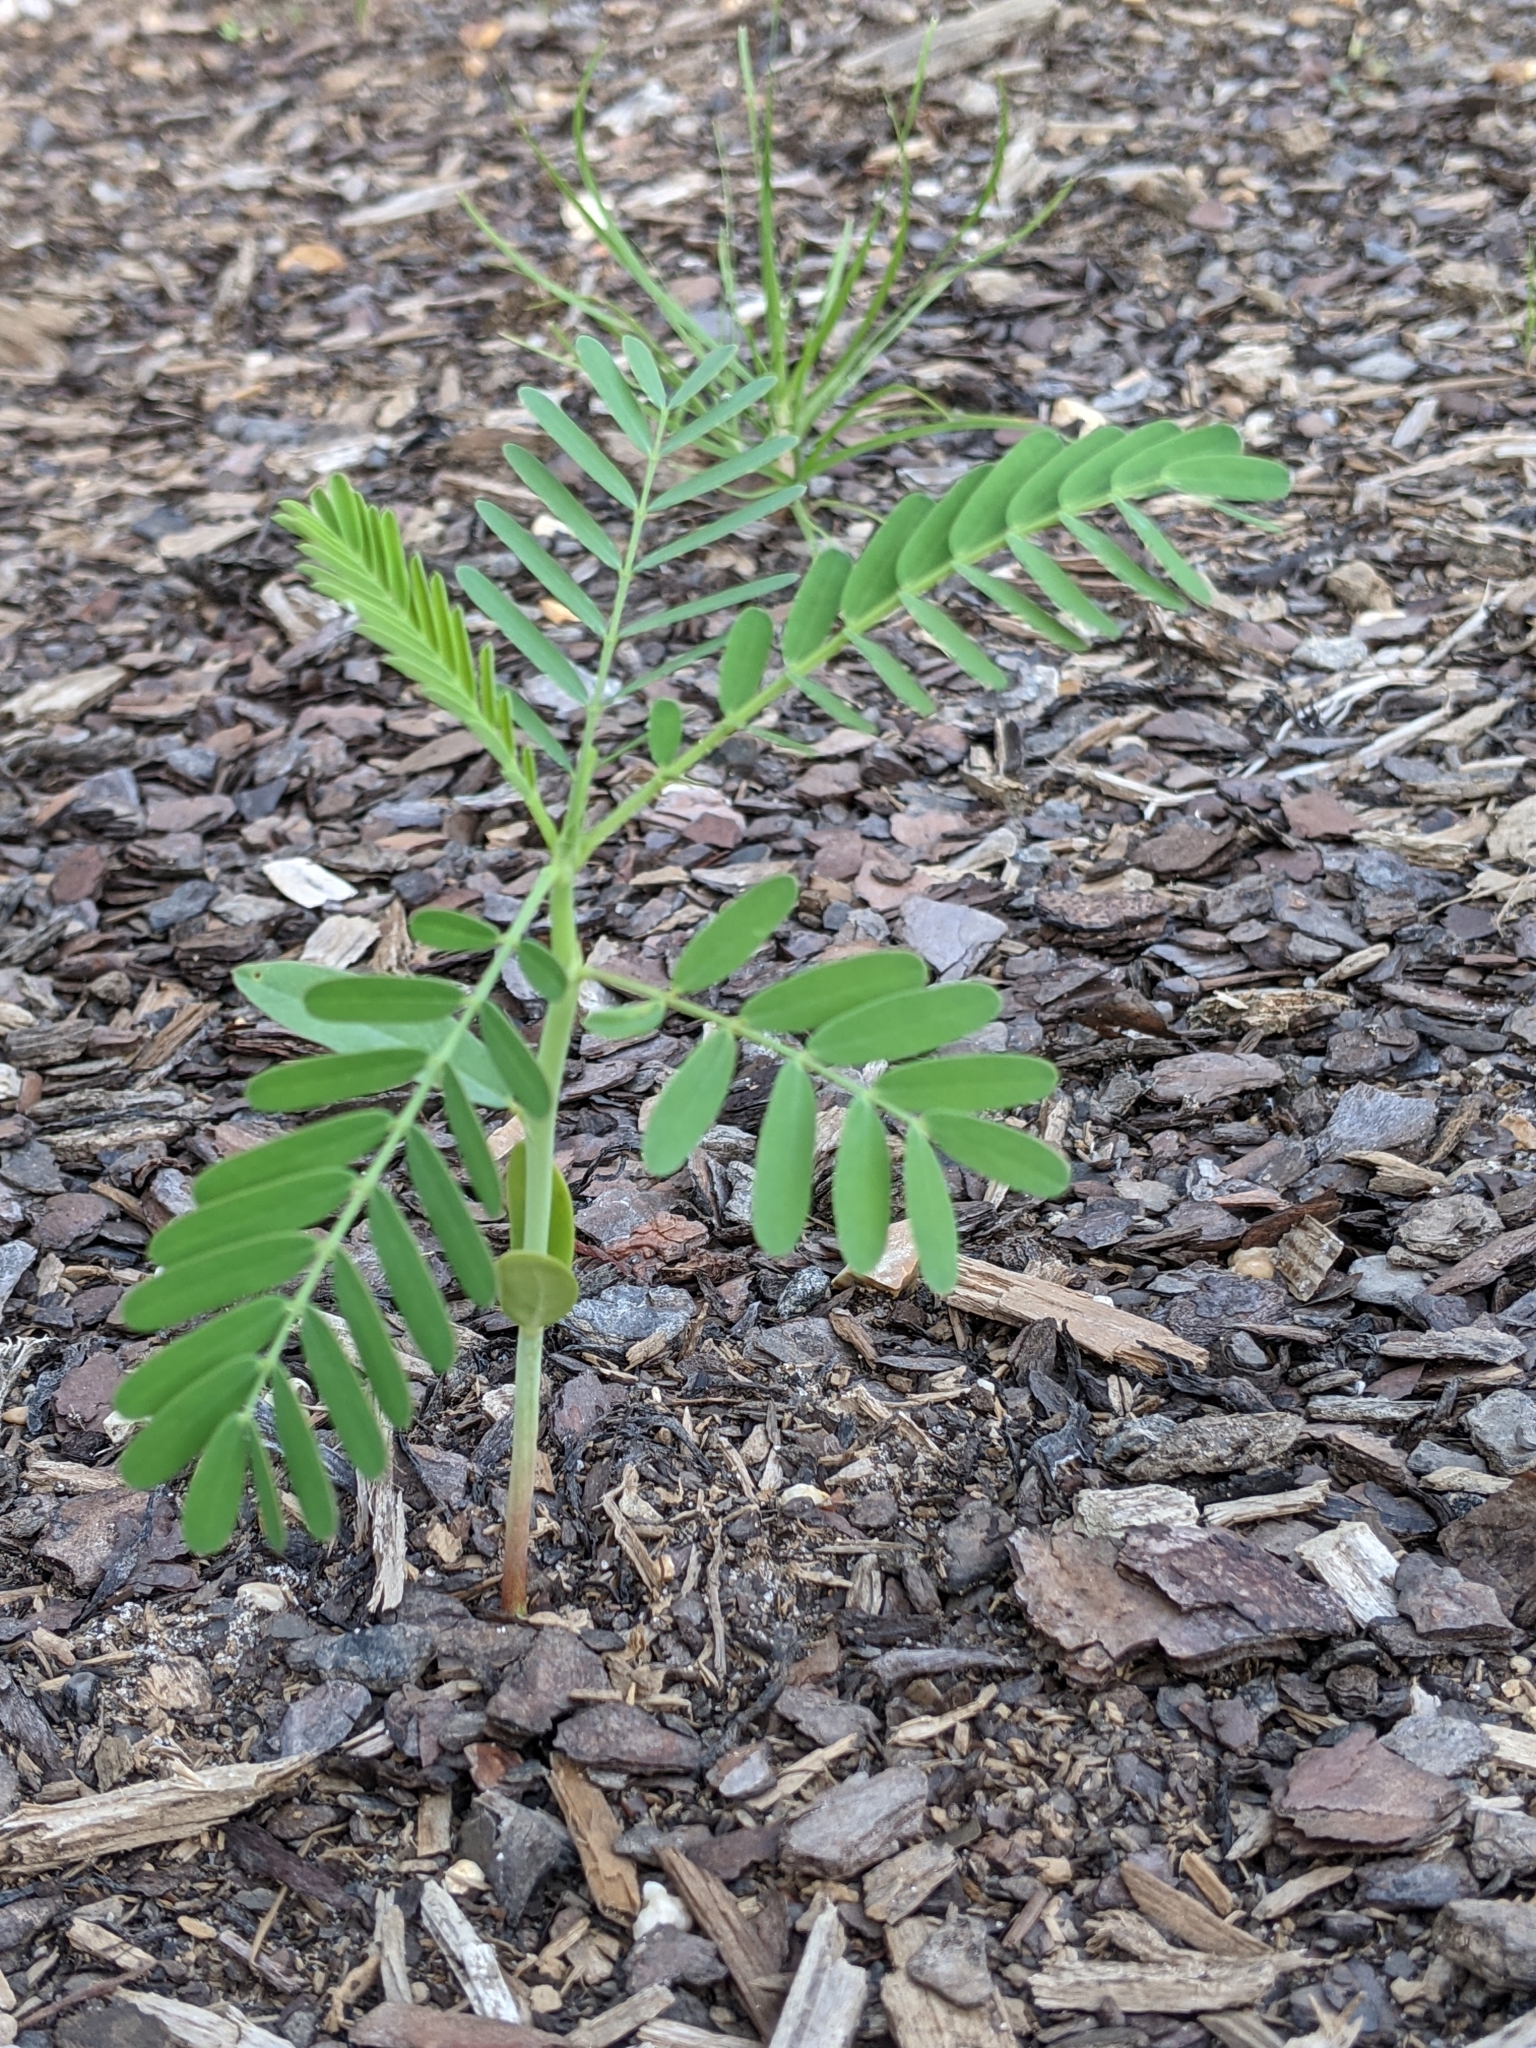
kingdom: Plantae
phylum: Tracheophyta
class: Magnoliopsida
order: Malpighiales
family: Phyllanthaceae
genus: Phyllanthus
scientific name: Phyllanthus urinaria
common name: Chamber bitter
